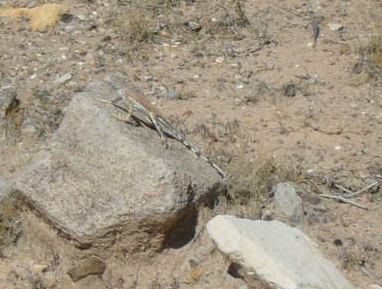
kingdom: Animalia
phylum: Chordata
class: Squamata
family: Phrynosomatidae
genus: Callisaurus
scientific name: Callisaurus draconoides
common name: Zebra-tailed lizard
